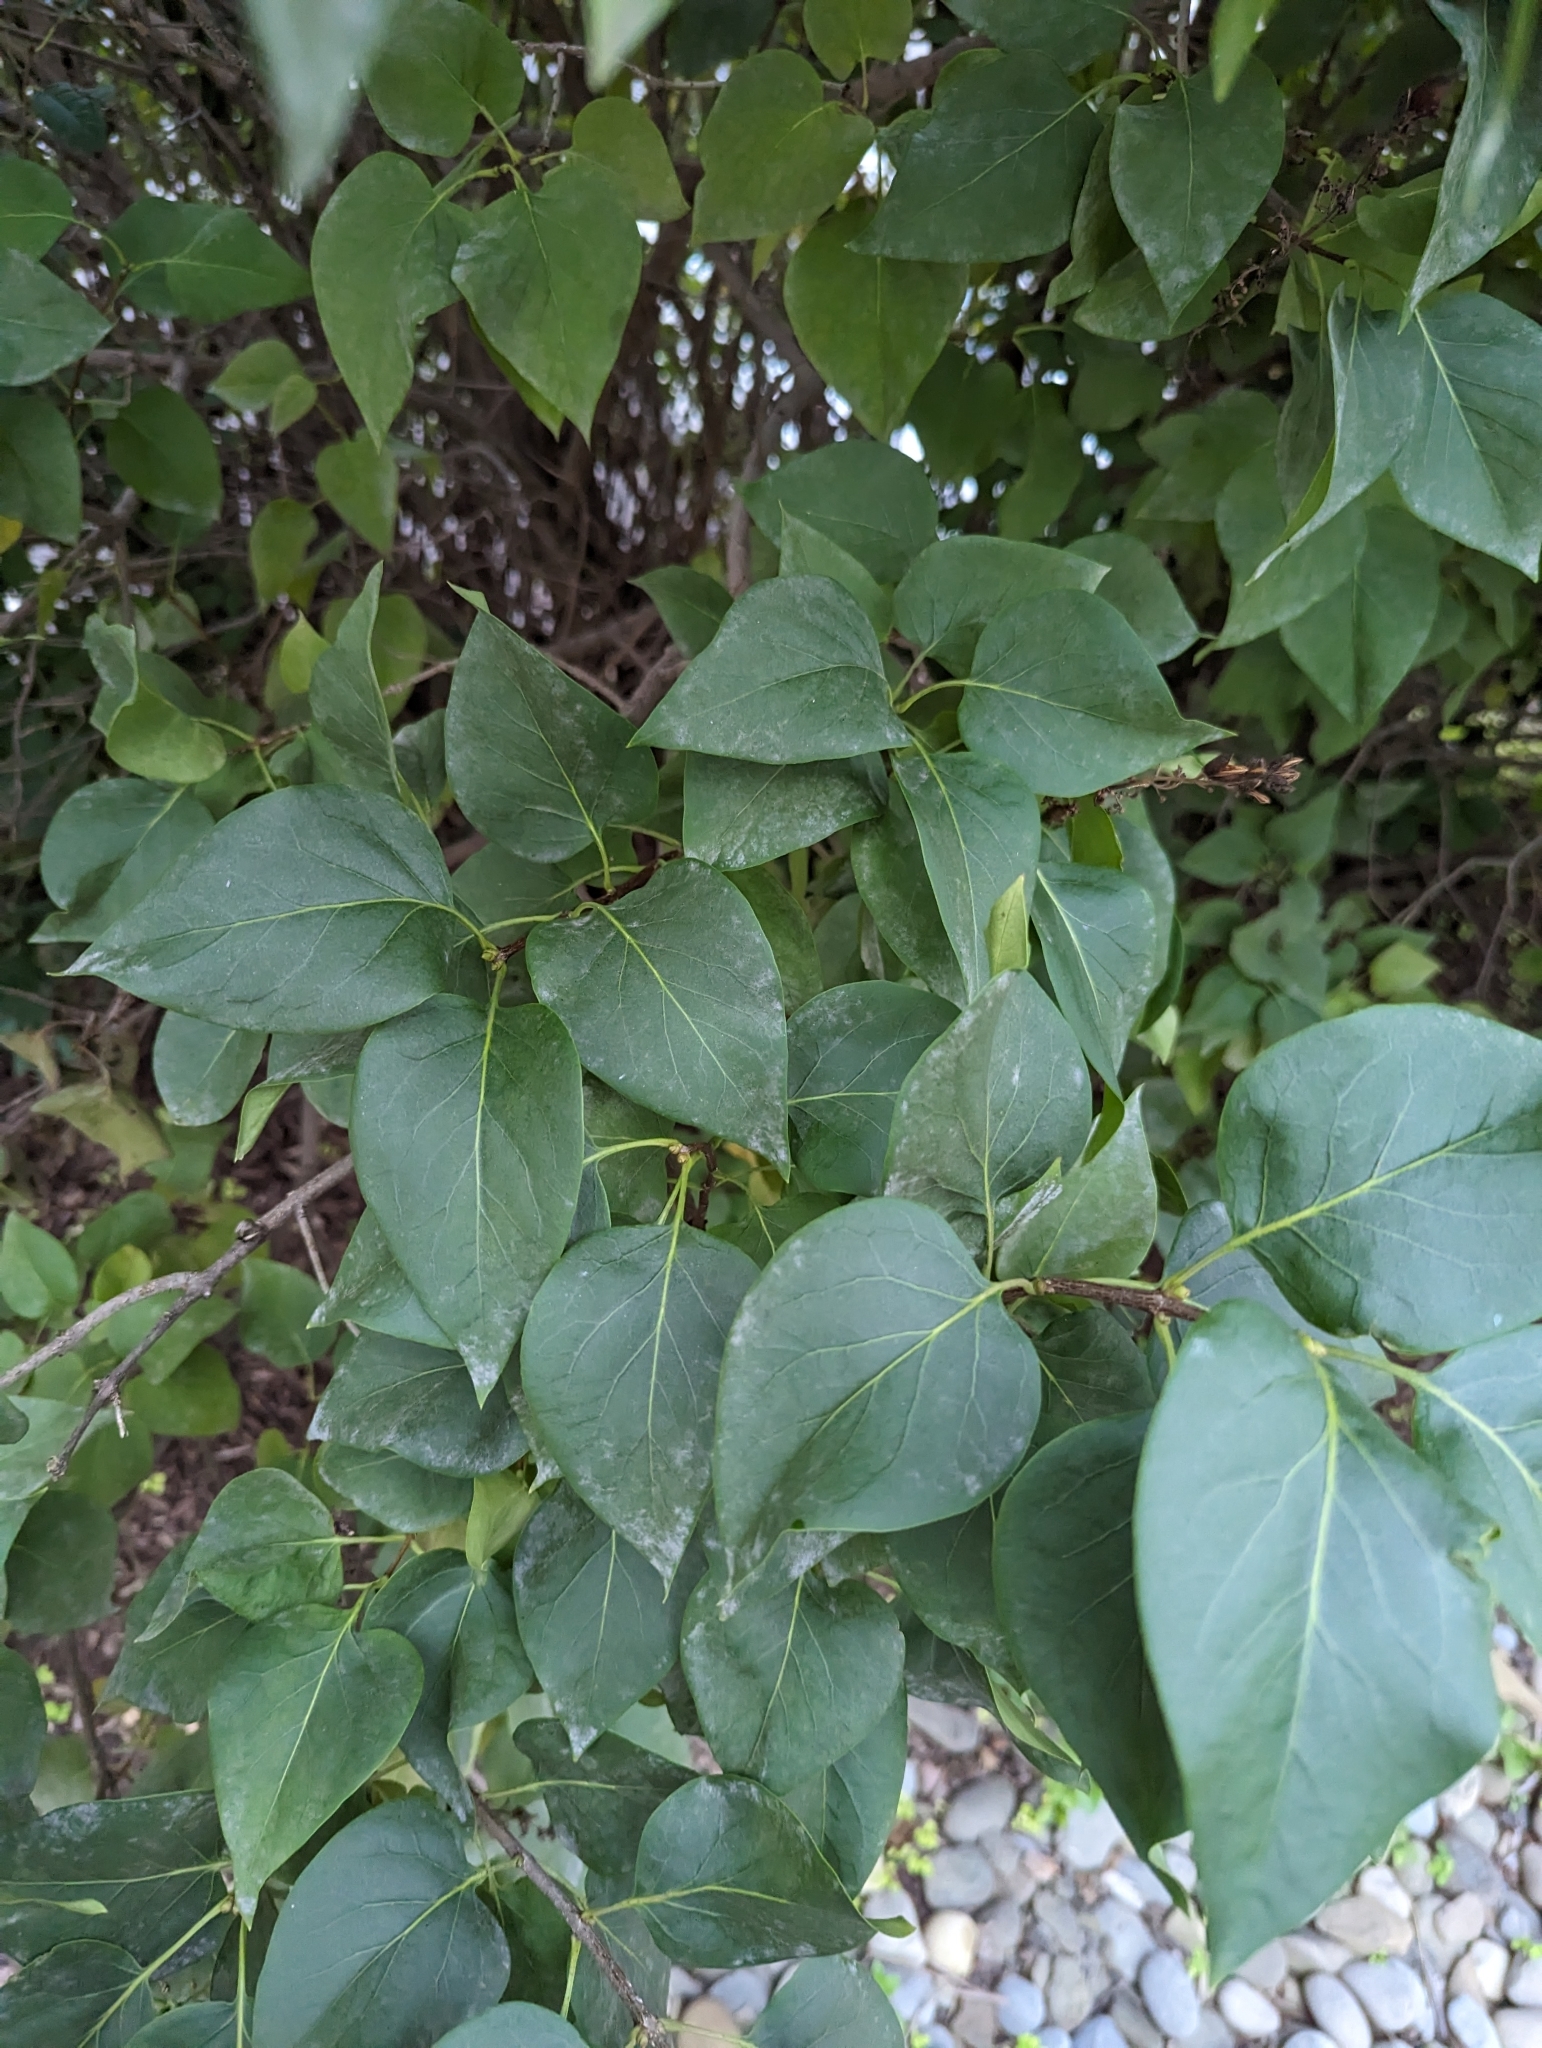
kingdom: Fungi
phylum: Ascomycota
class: Leotiomycetes
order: Helotiales
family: Erysiphaceae
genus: Erysiphe
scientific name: Erysiphe syringae
